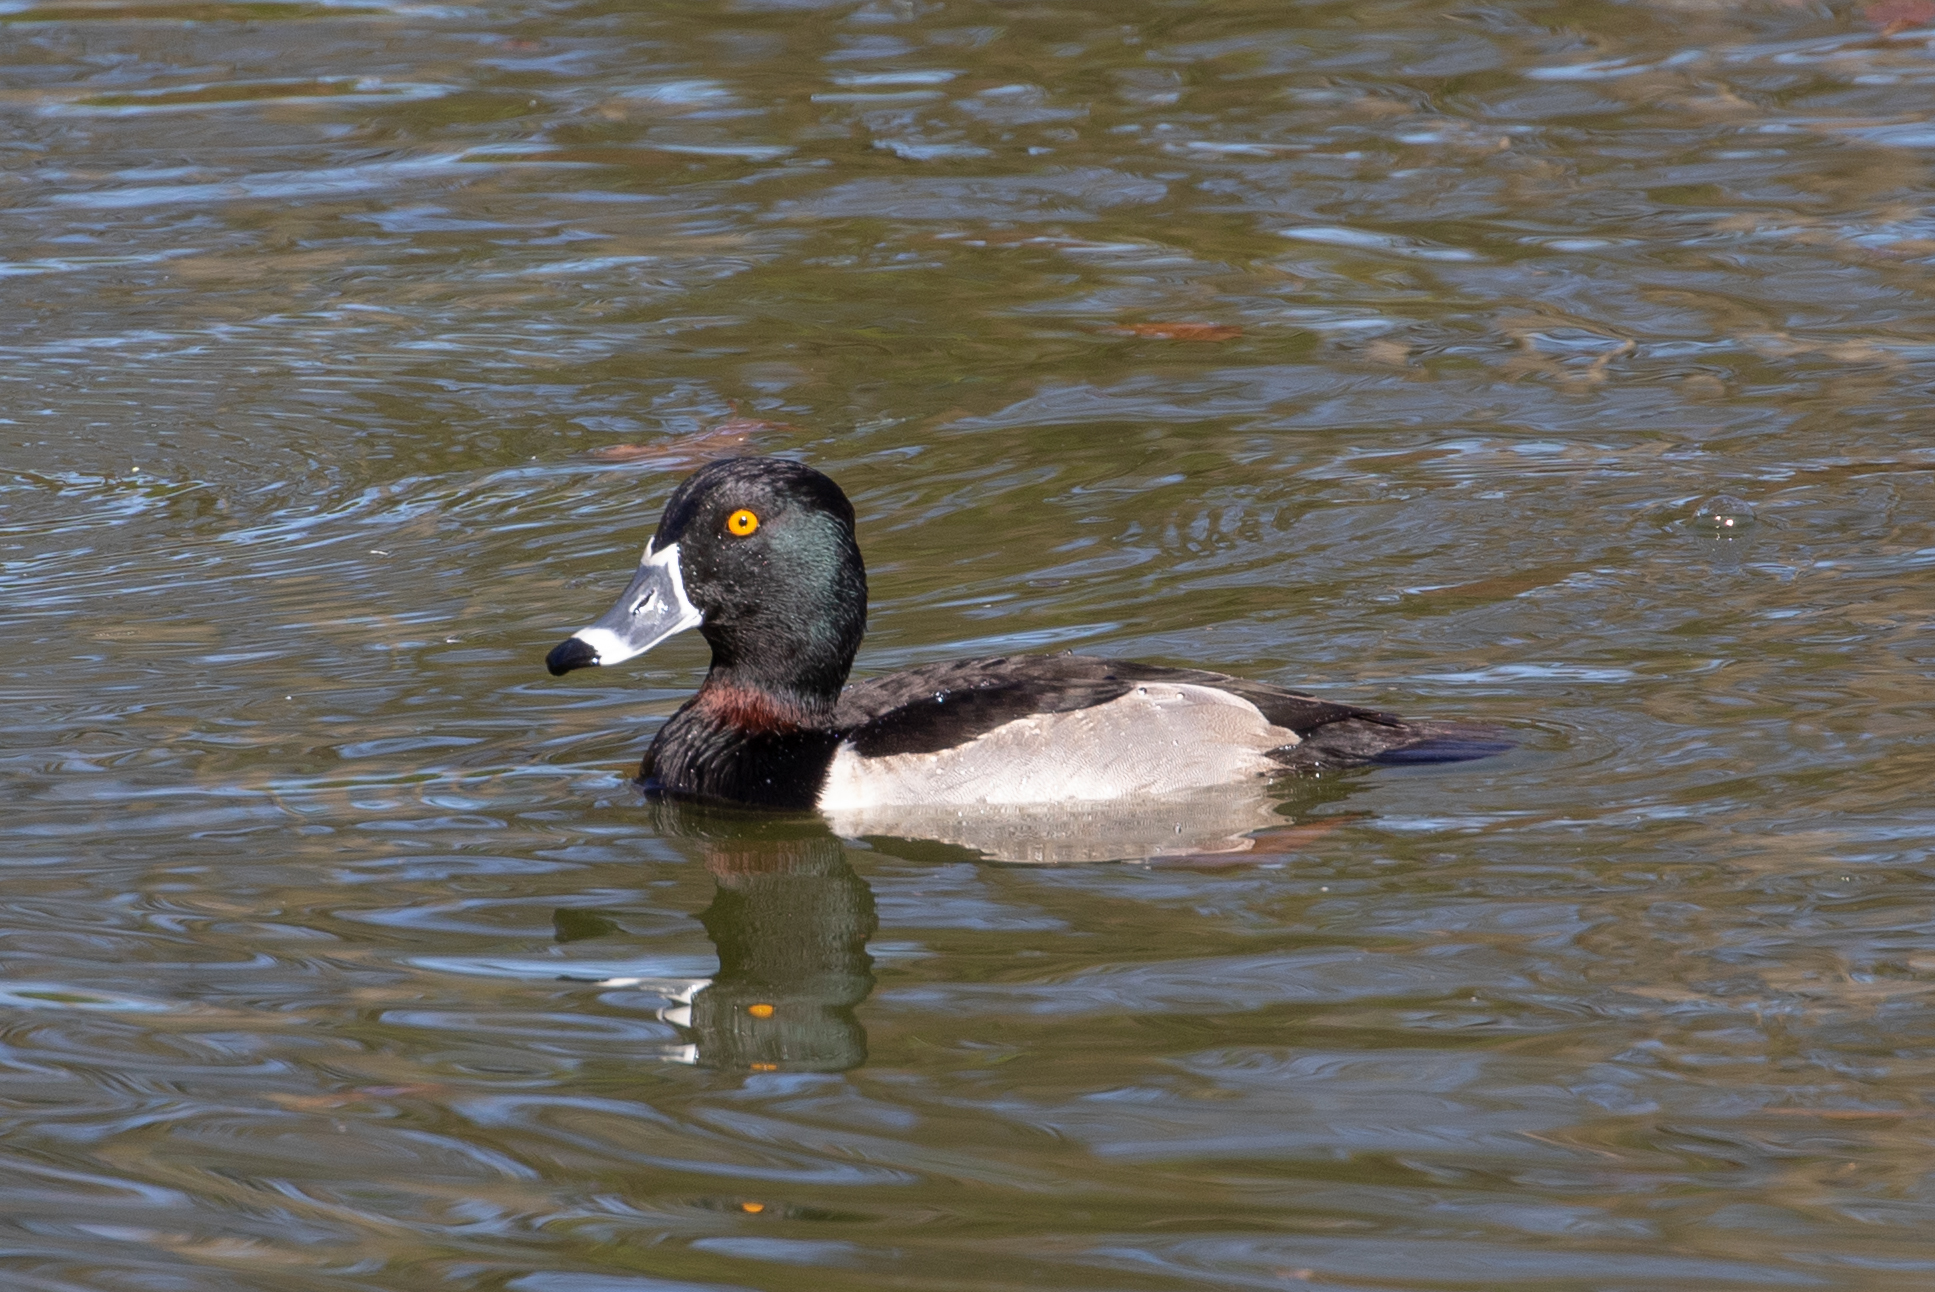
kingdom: Animalia
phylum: Chordata
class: Aves
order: Anseriformes
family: Anatidae
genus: Aythya
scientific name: Aythya collaris
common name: Ring-necked duck
